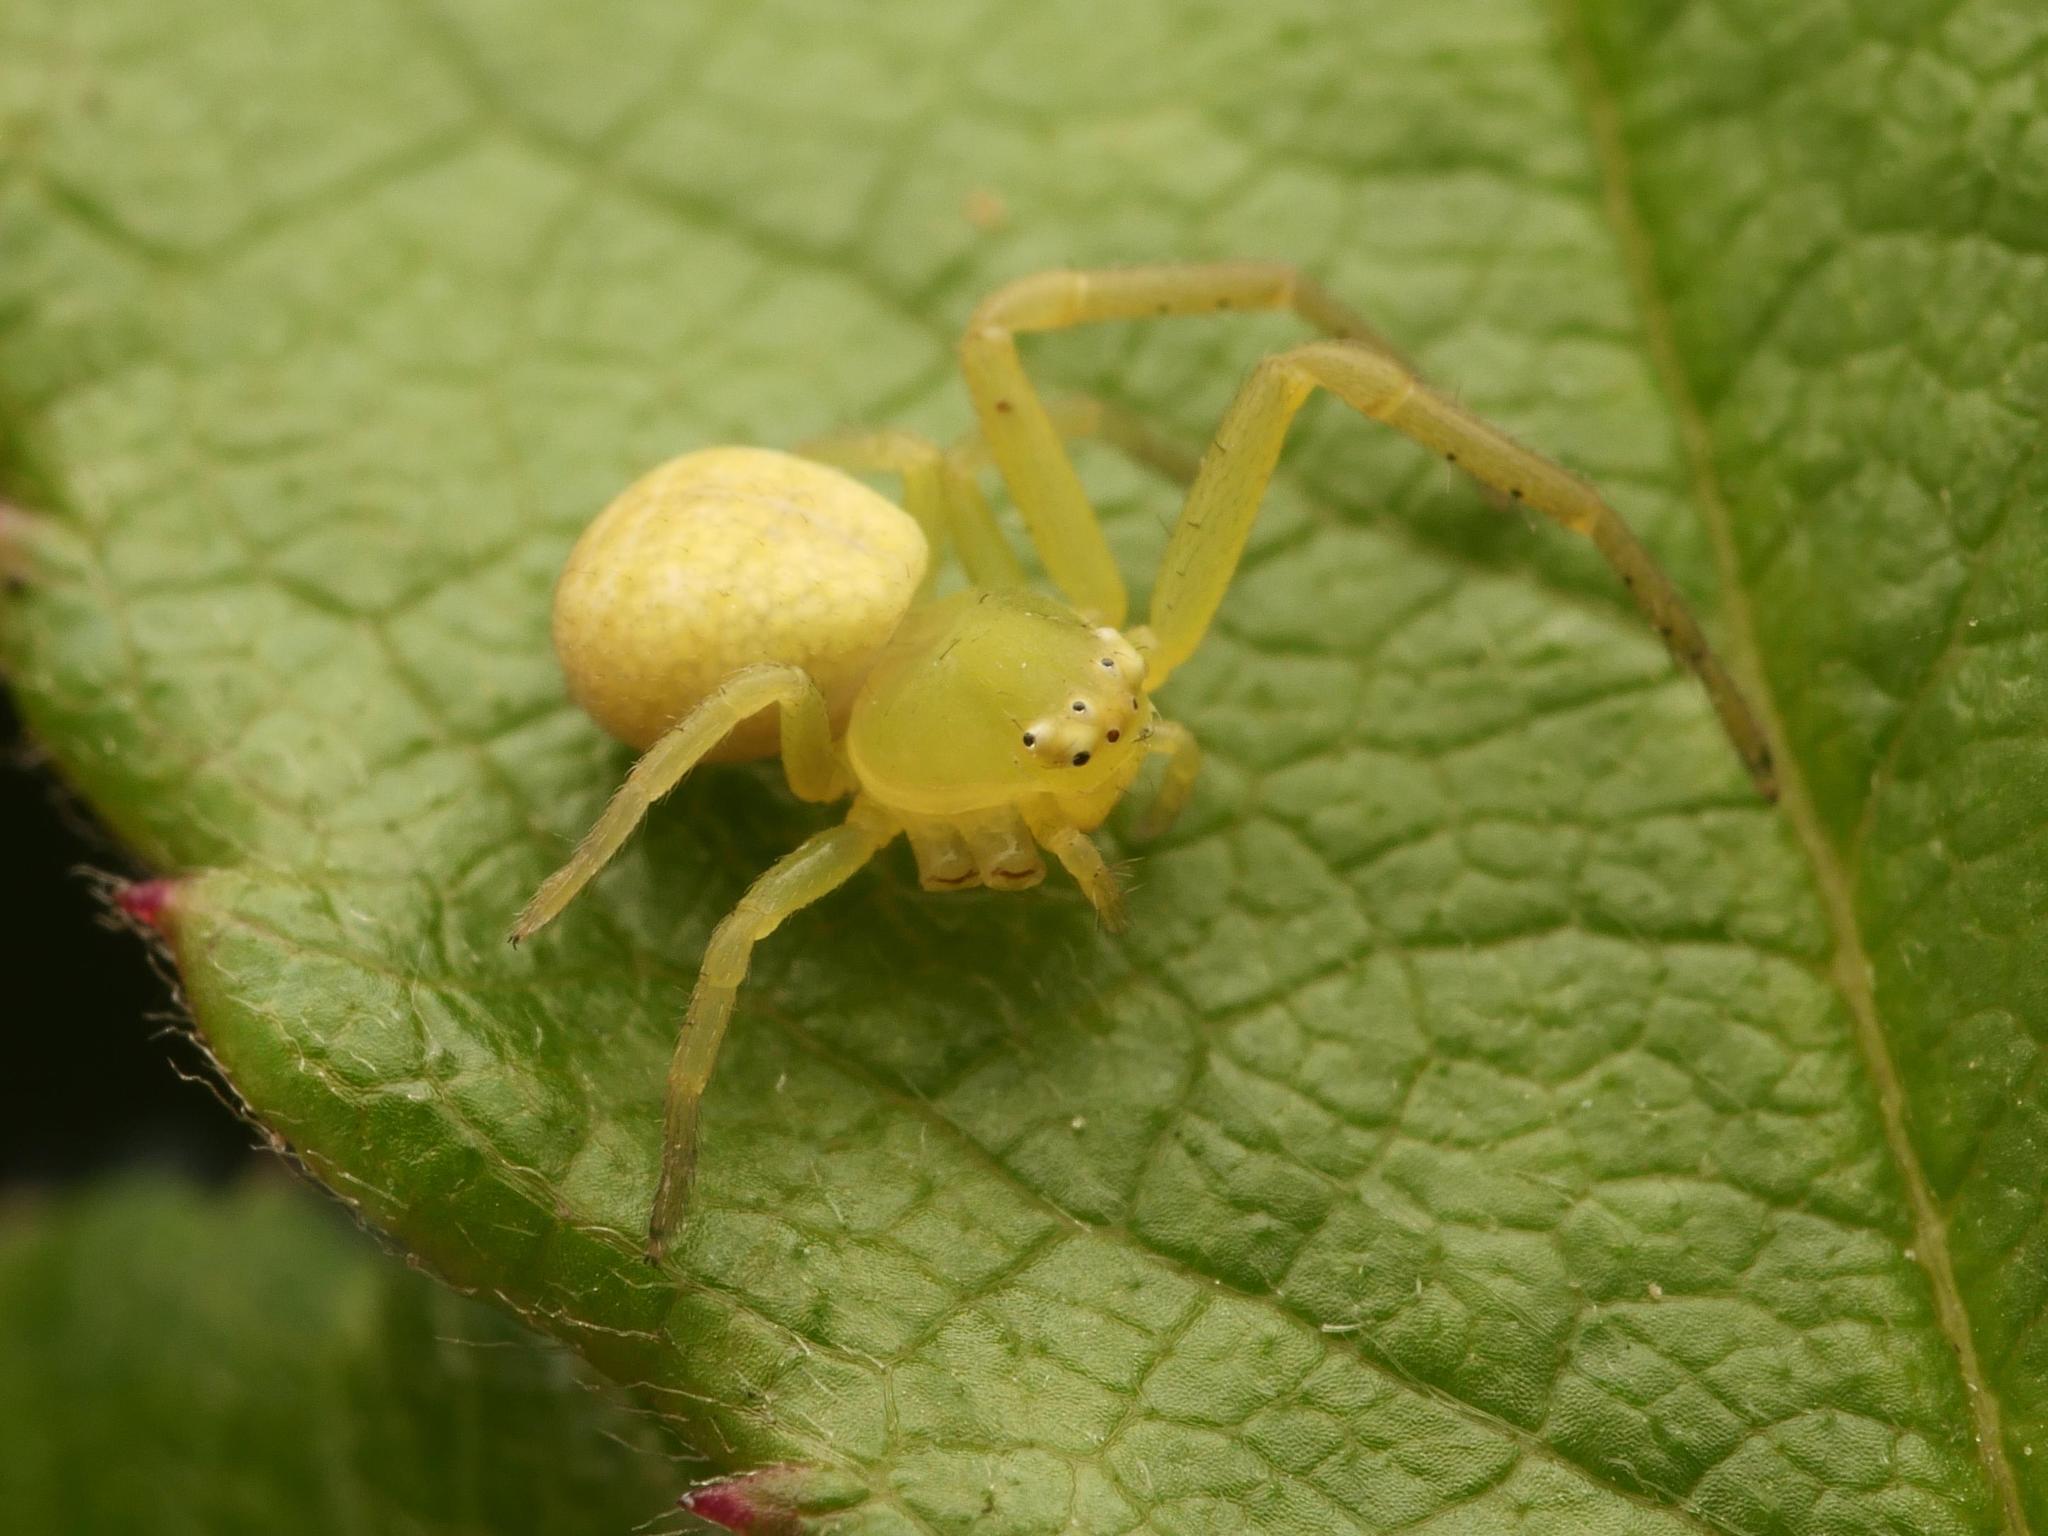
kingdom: Animalia
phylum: Arthropoda
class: Arachnida
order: Araneae
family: Thomisidae
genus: Ebrechtella
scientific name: Ebrechtella tricuspidata
